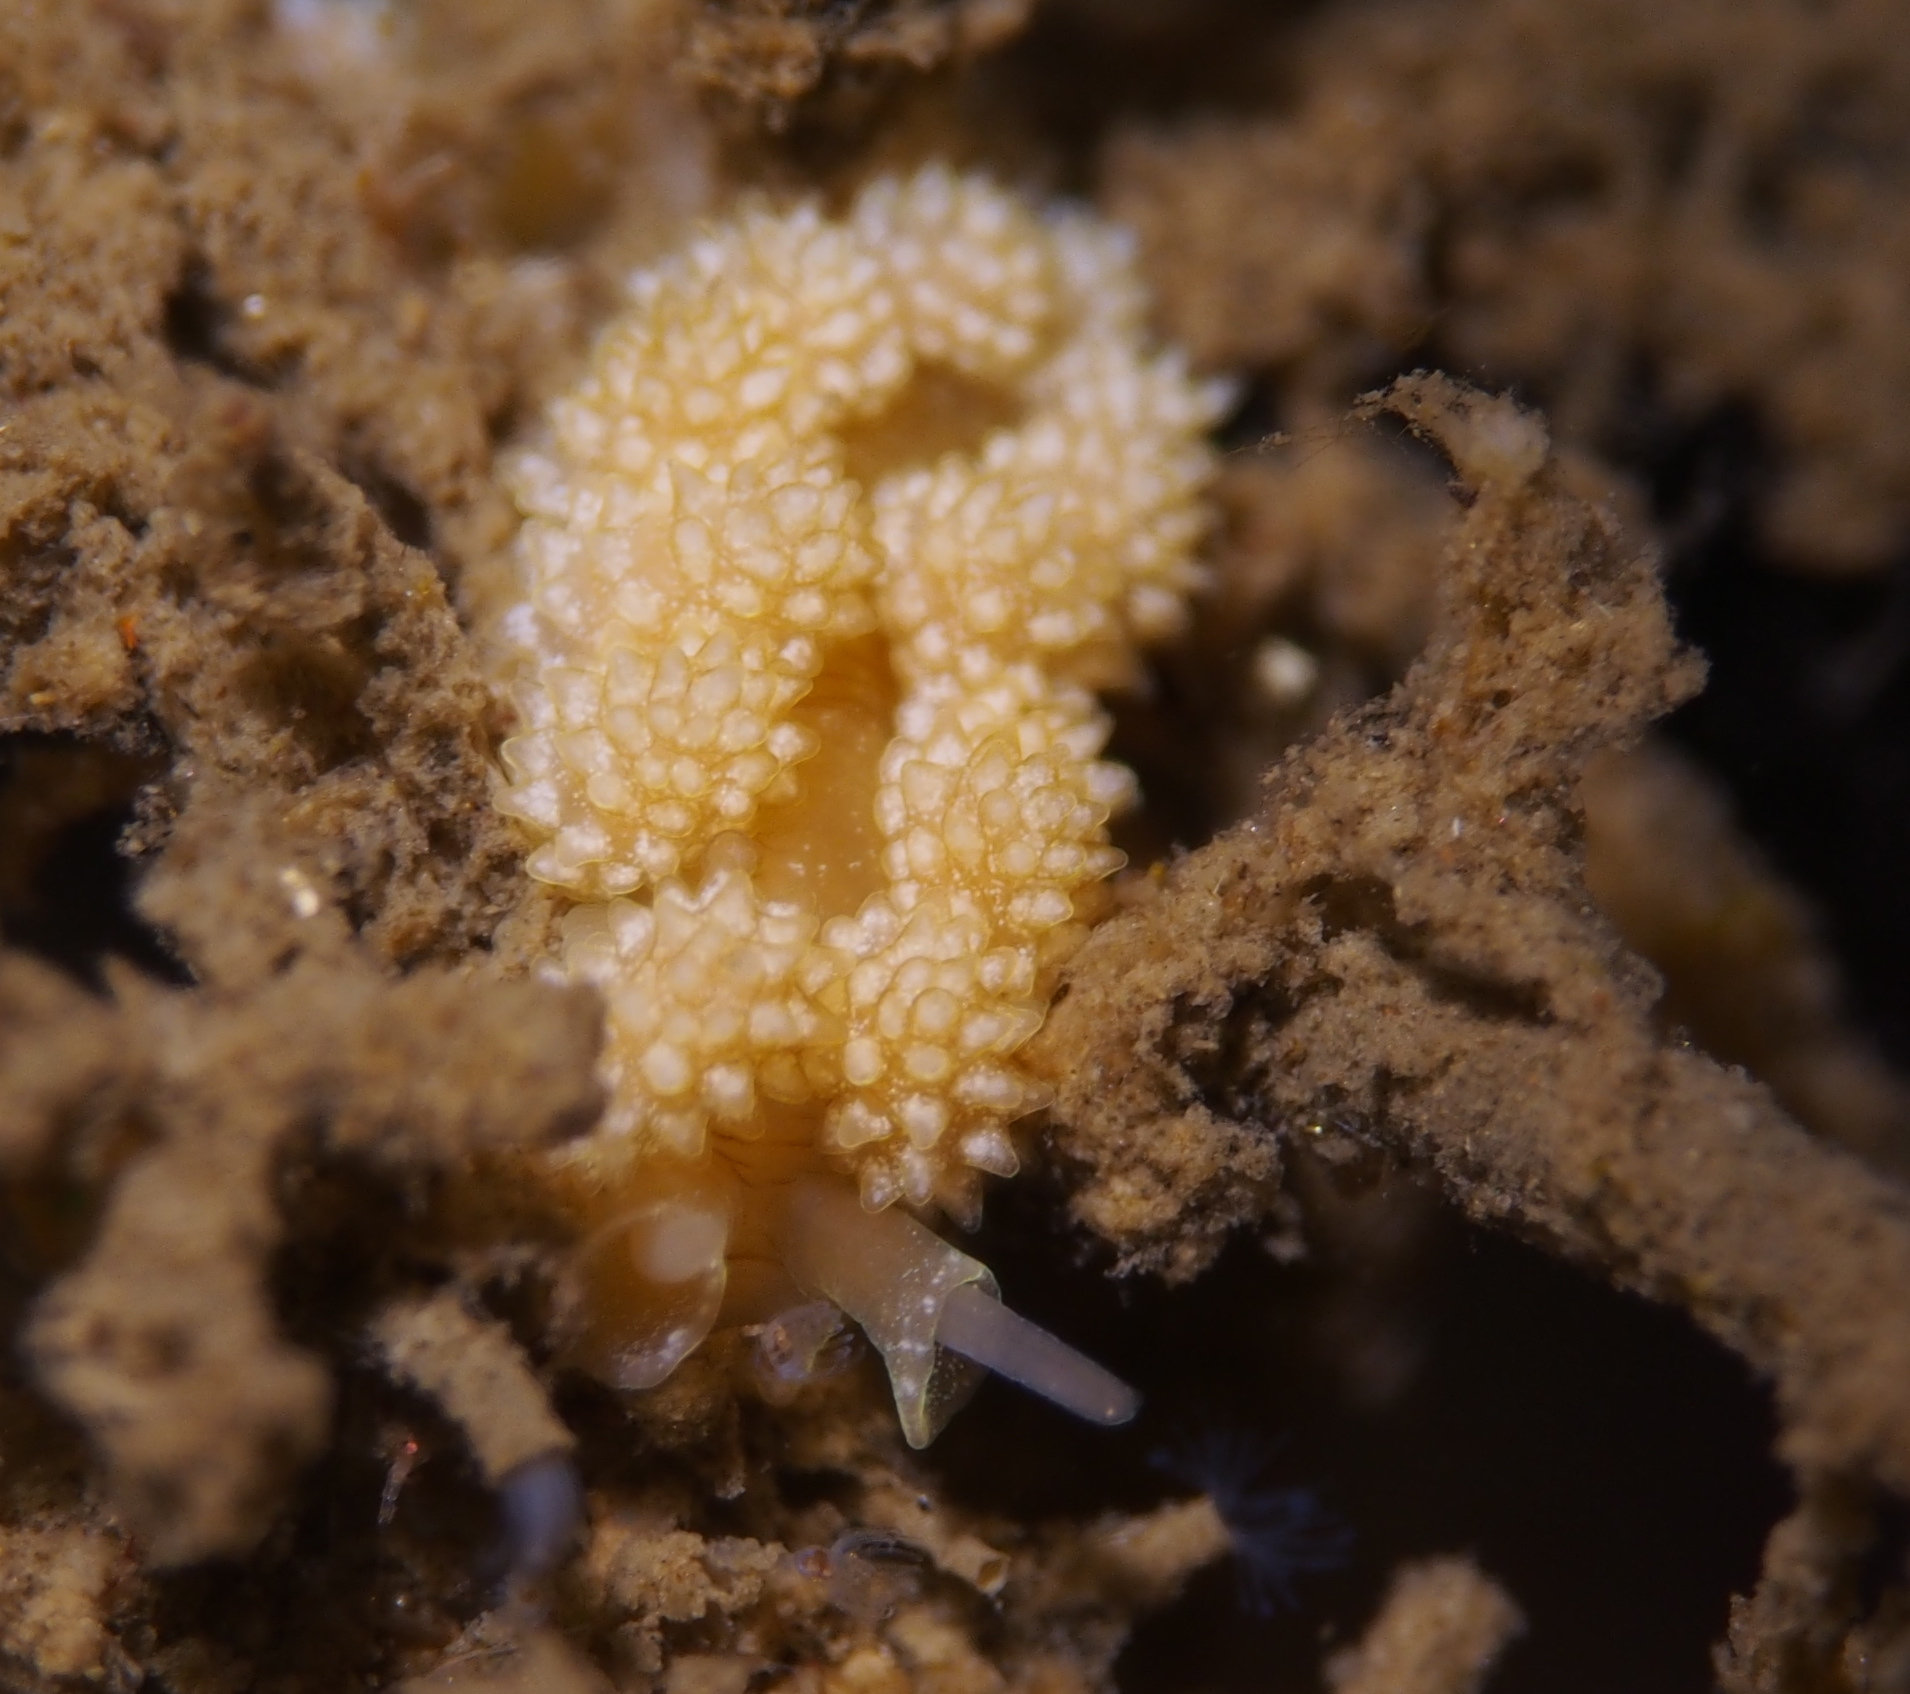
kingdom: Animalia
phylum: Mollusca
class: Gastropoda
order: Nudibranchia
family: Dotidae
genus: Doto
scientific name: Doto fragilis
